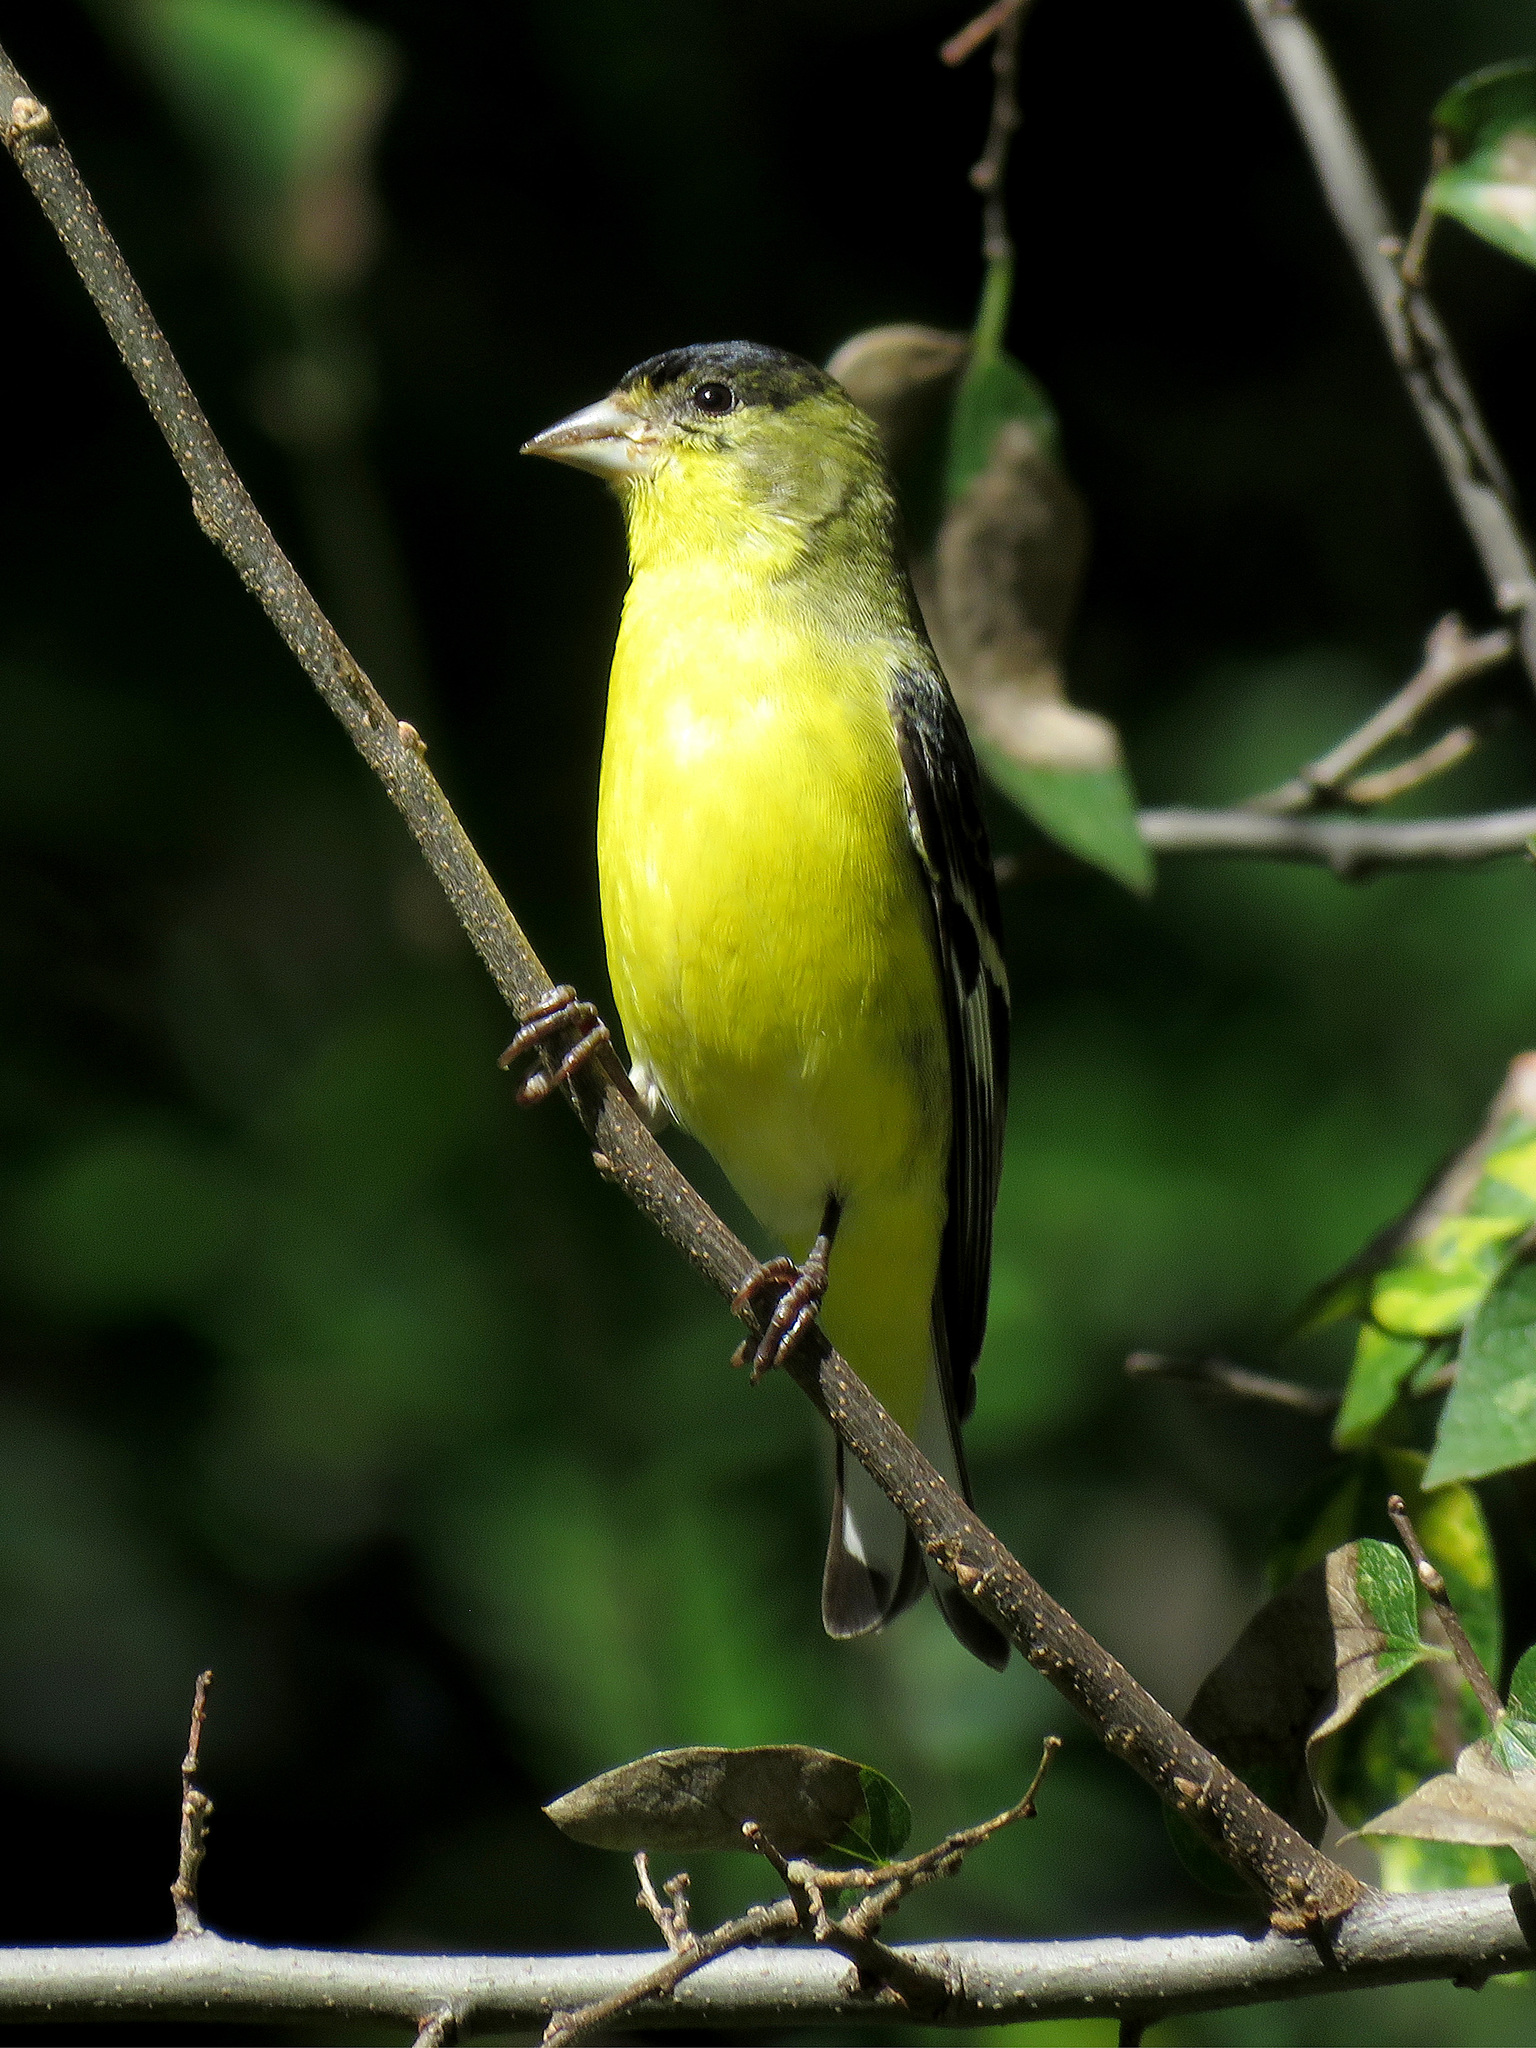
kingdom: Animalia
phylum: Chordata
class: Aves
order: Passeriformes
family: Fringillidae
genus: Spinus
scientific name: Spinus psaltria
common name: Lesser goldfinch
